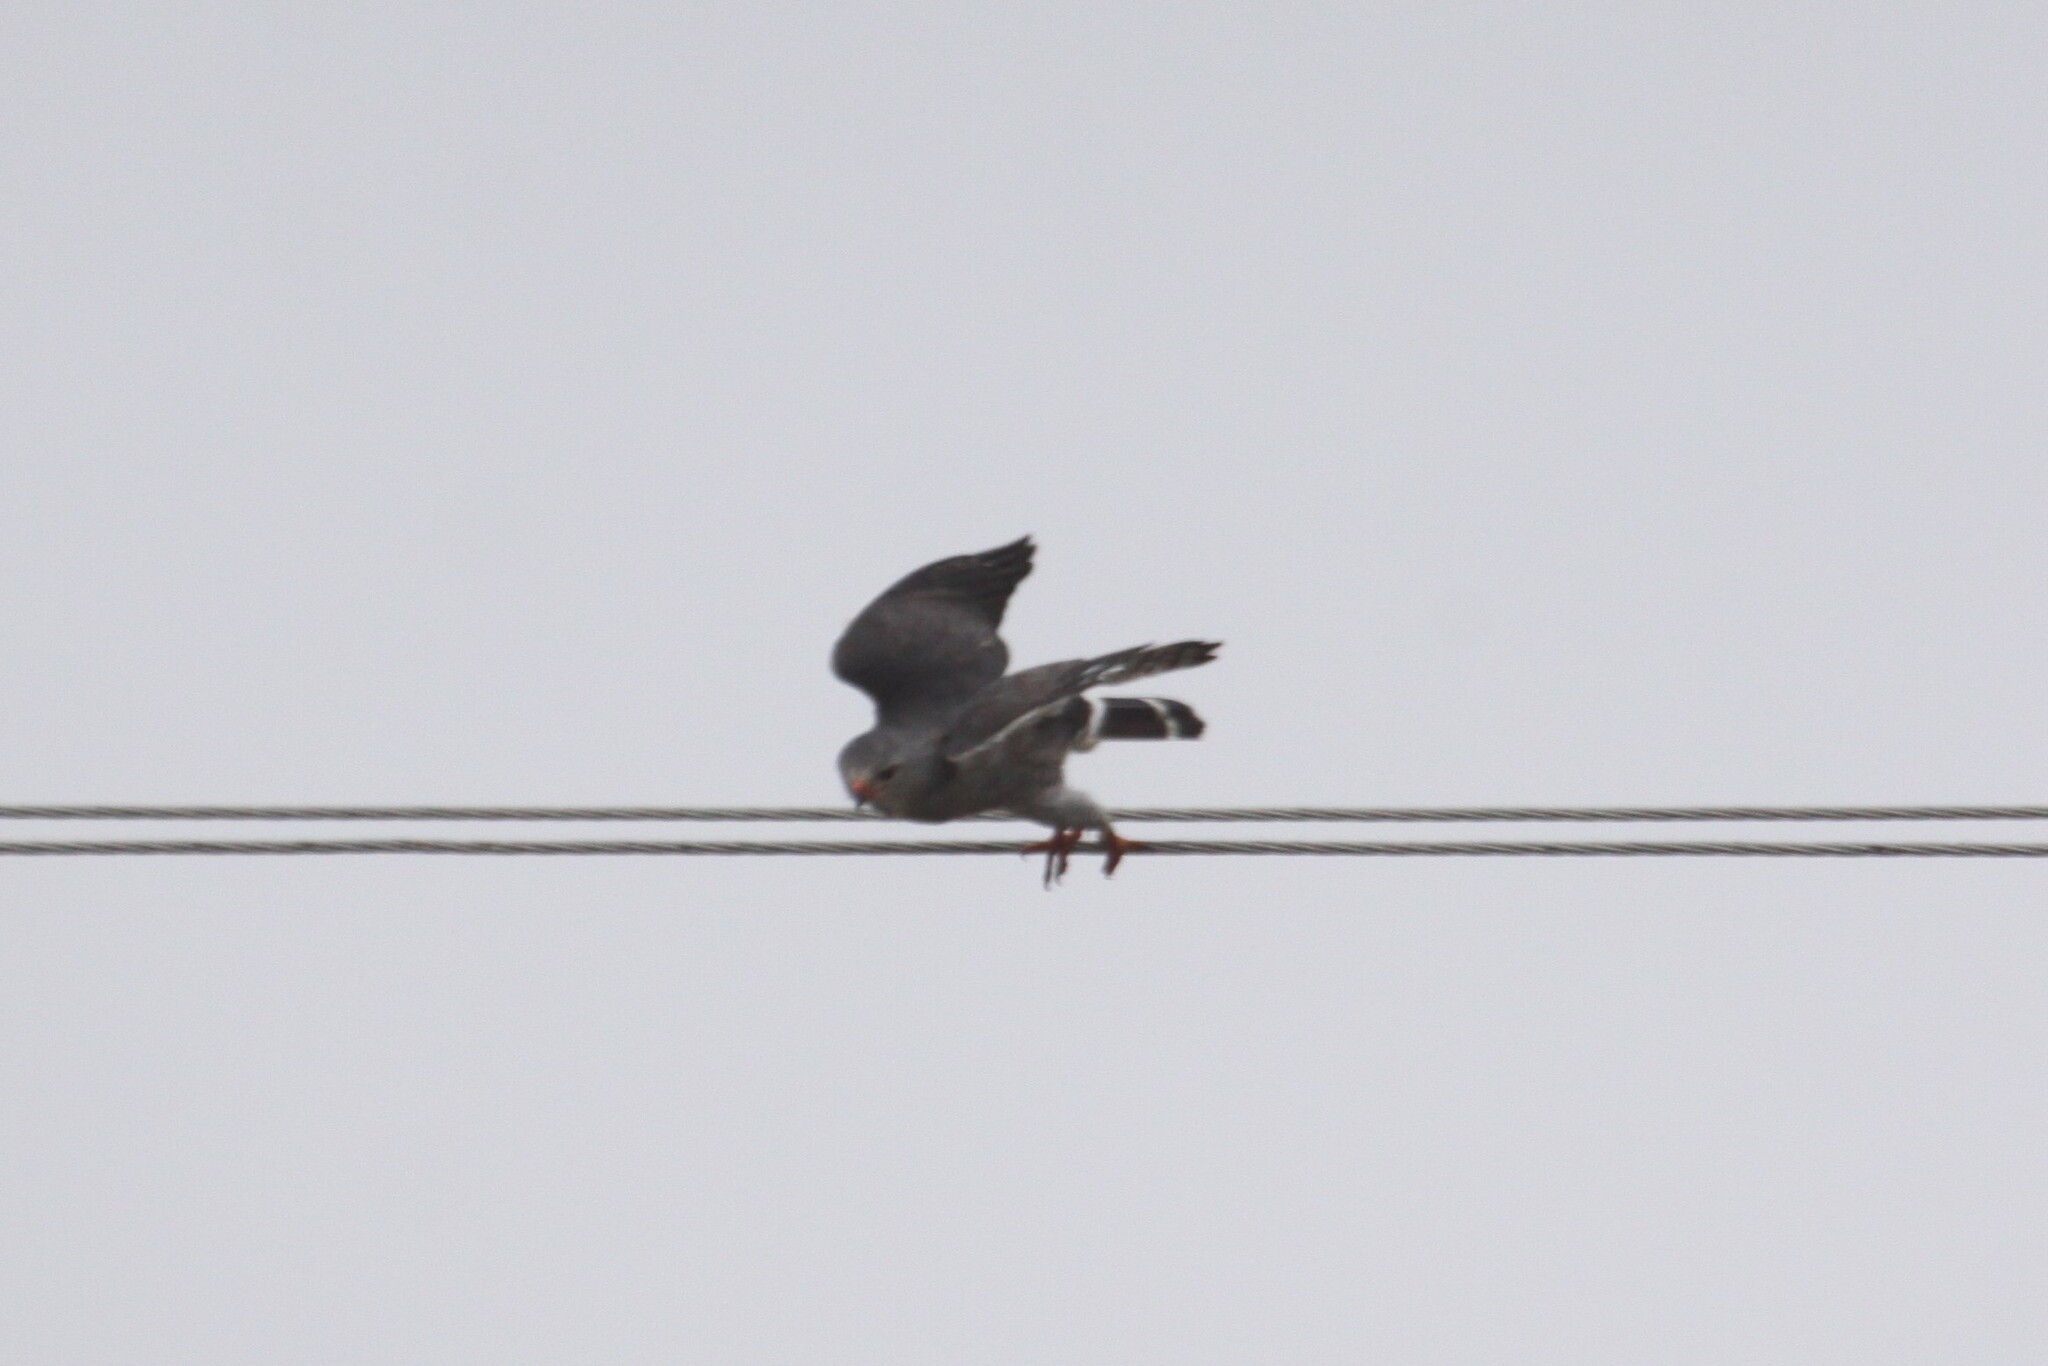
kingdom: Animalia
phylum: Chordata
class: Aves
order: Accipitriformes
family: Accipitridae
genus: Kaupifalco
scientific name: Kaupifalco monogrammicus
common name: Lizard buzzard
